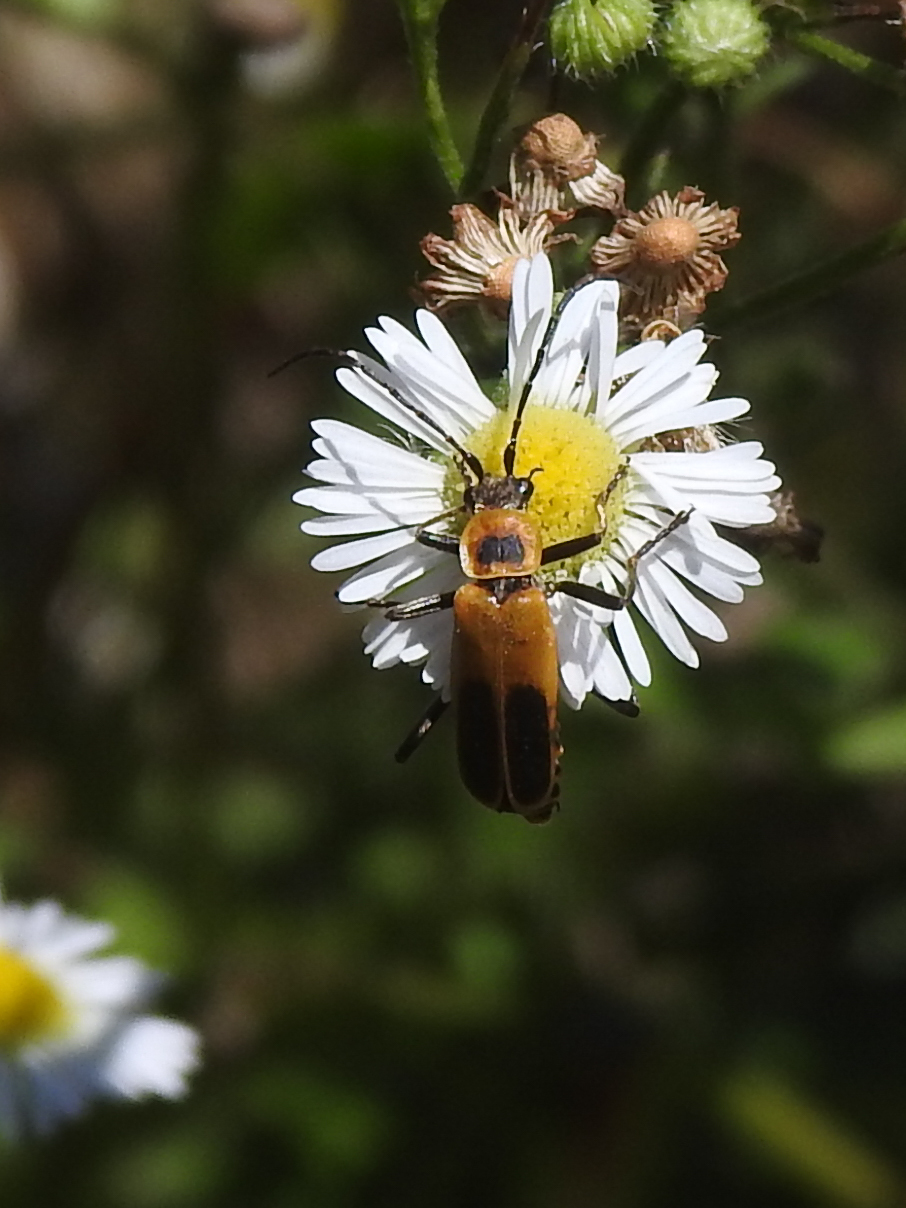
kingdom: Animalia
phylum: Arthropoda
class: Insecta
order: Coleoptera
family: Cantharidae
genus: Chauliognathus
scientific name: Chauliognathus pensylvanicus
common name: Goldenrod soldier beetle
